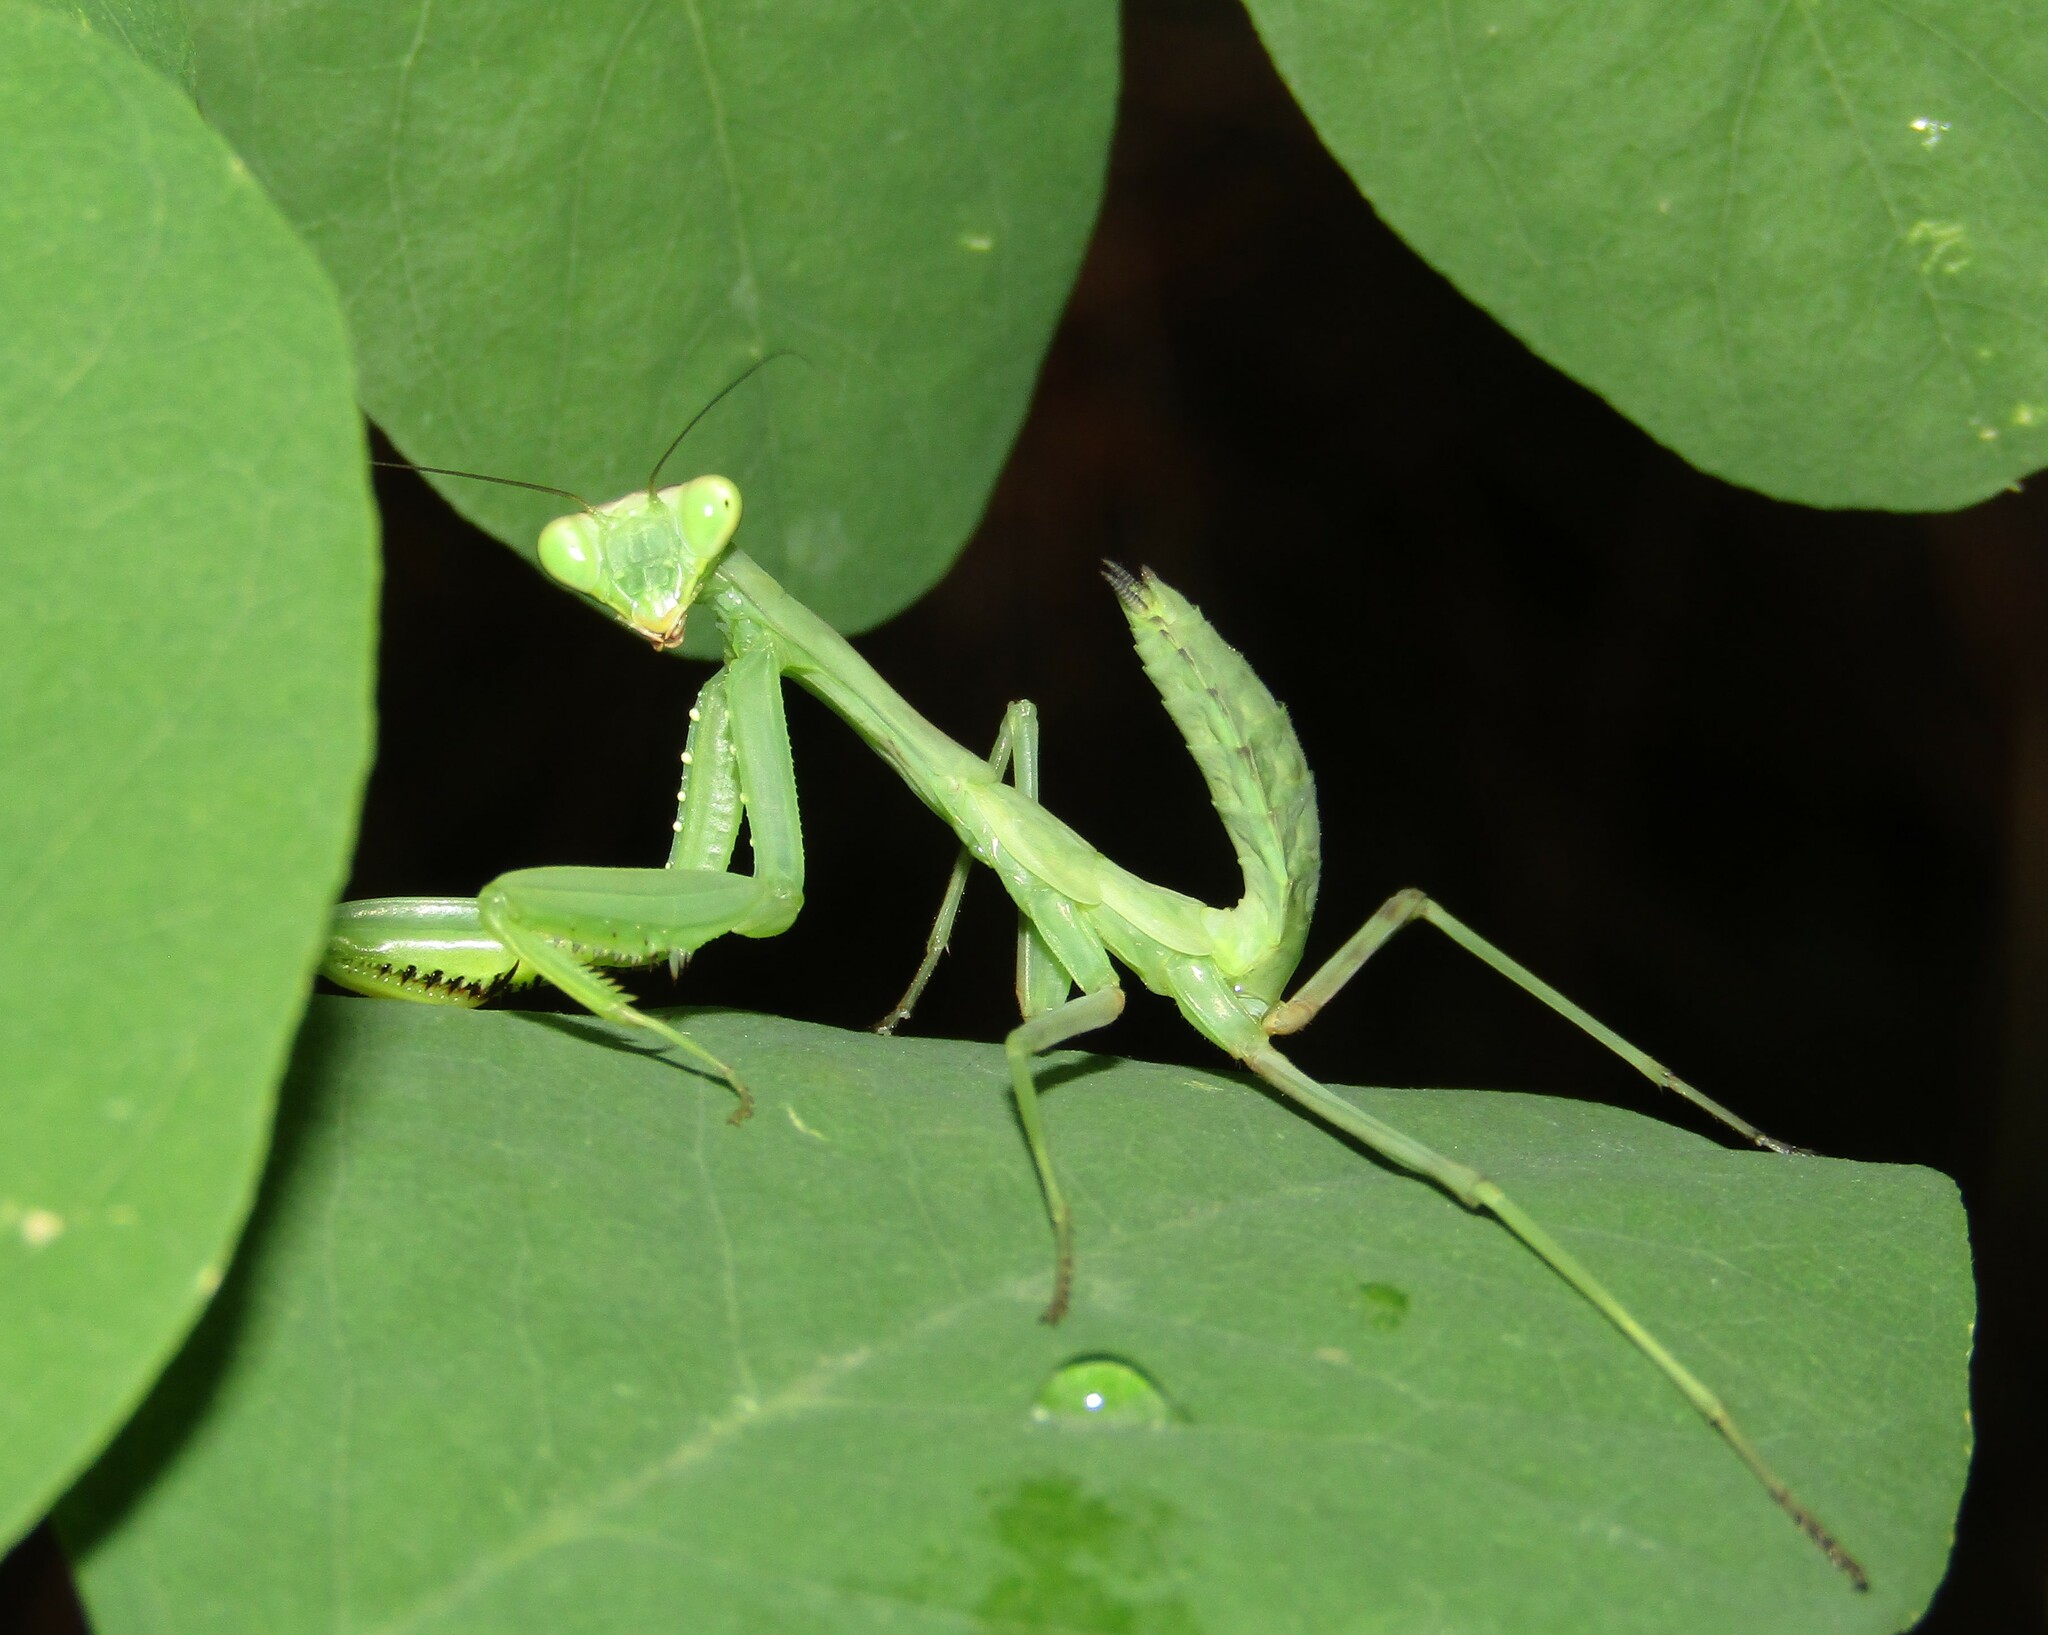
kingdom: Animalia
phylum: Arthropoda
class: Insecta
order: Mantodea
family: Mantidae
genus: Hierodula
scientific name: Hierodula transcaucasica
